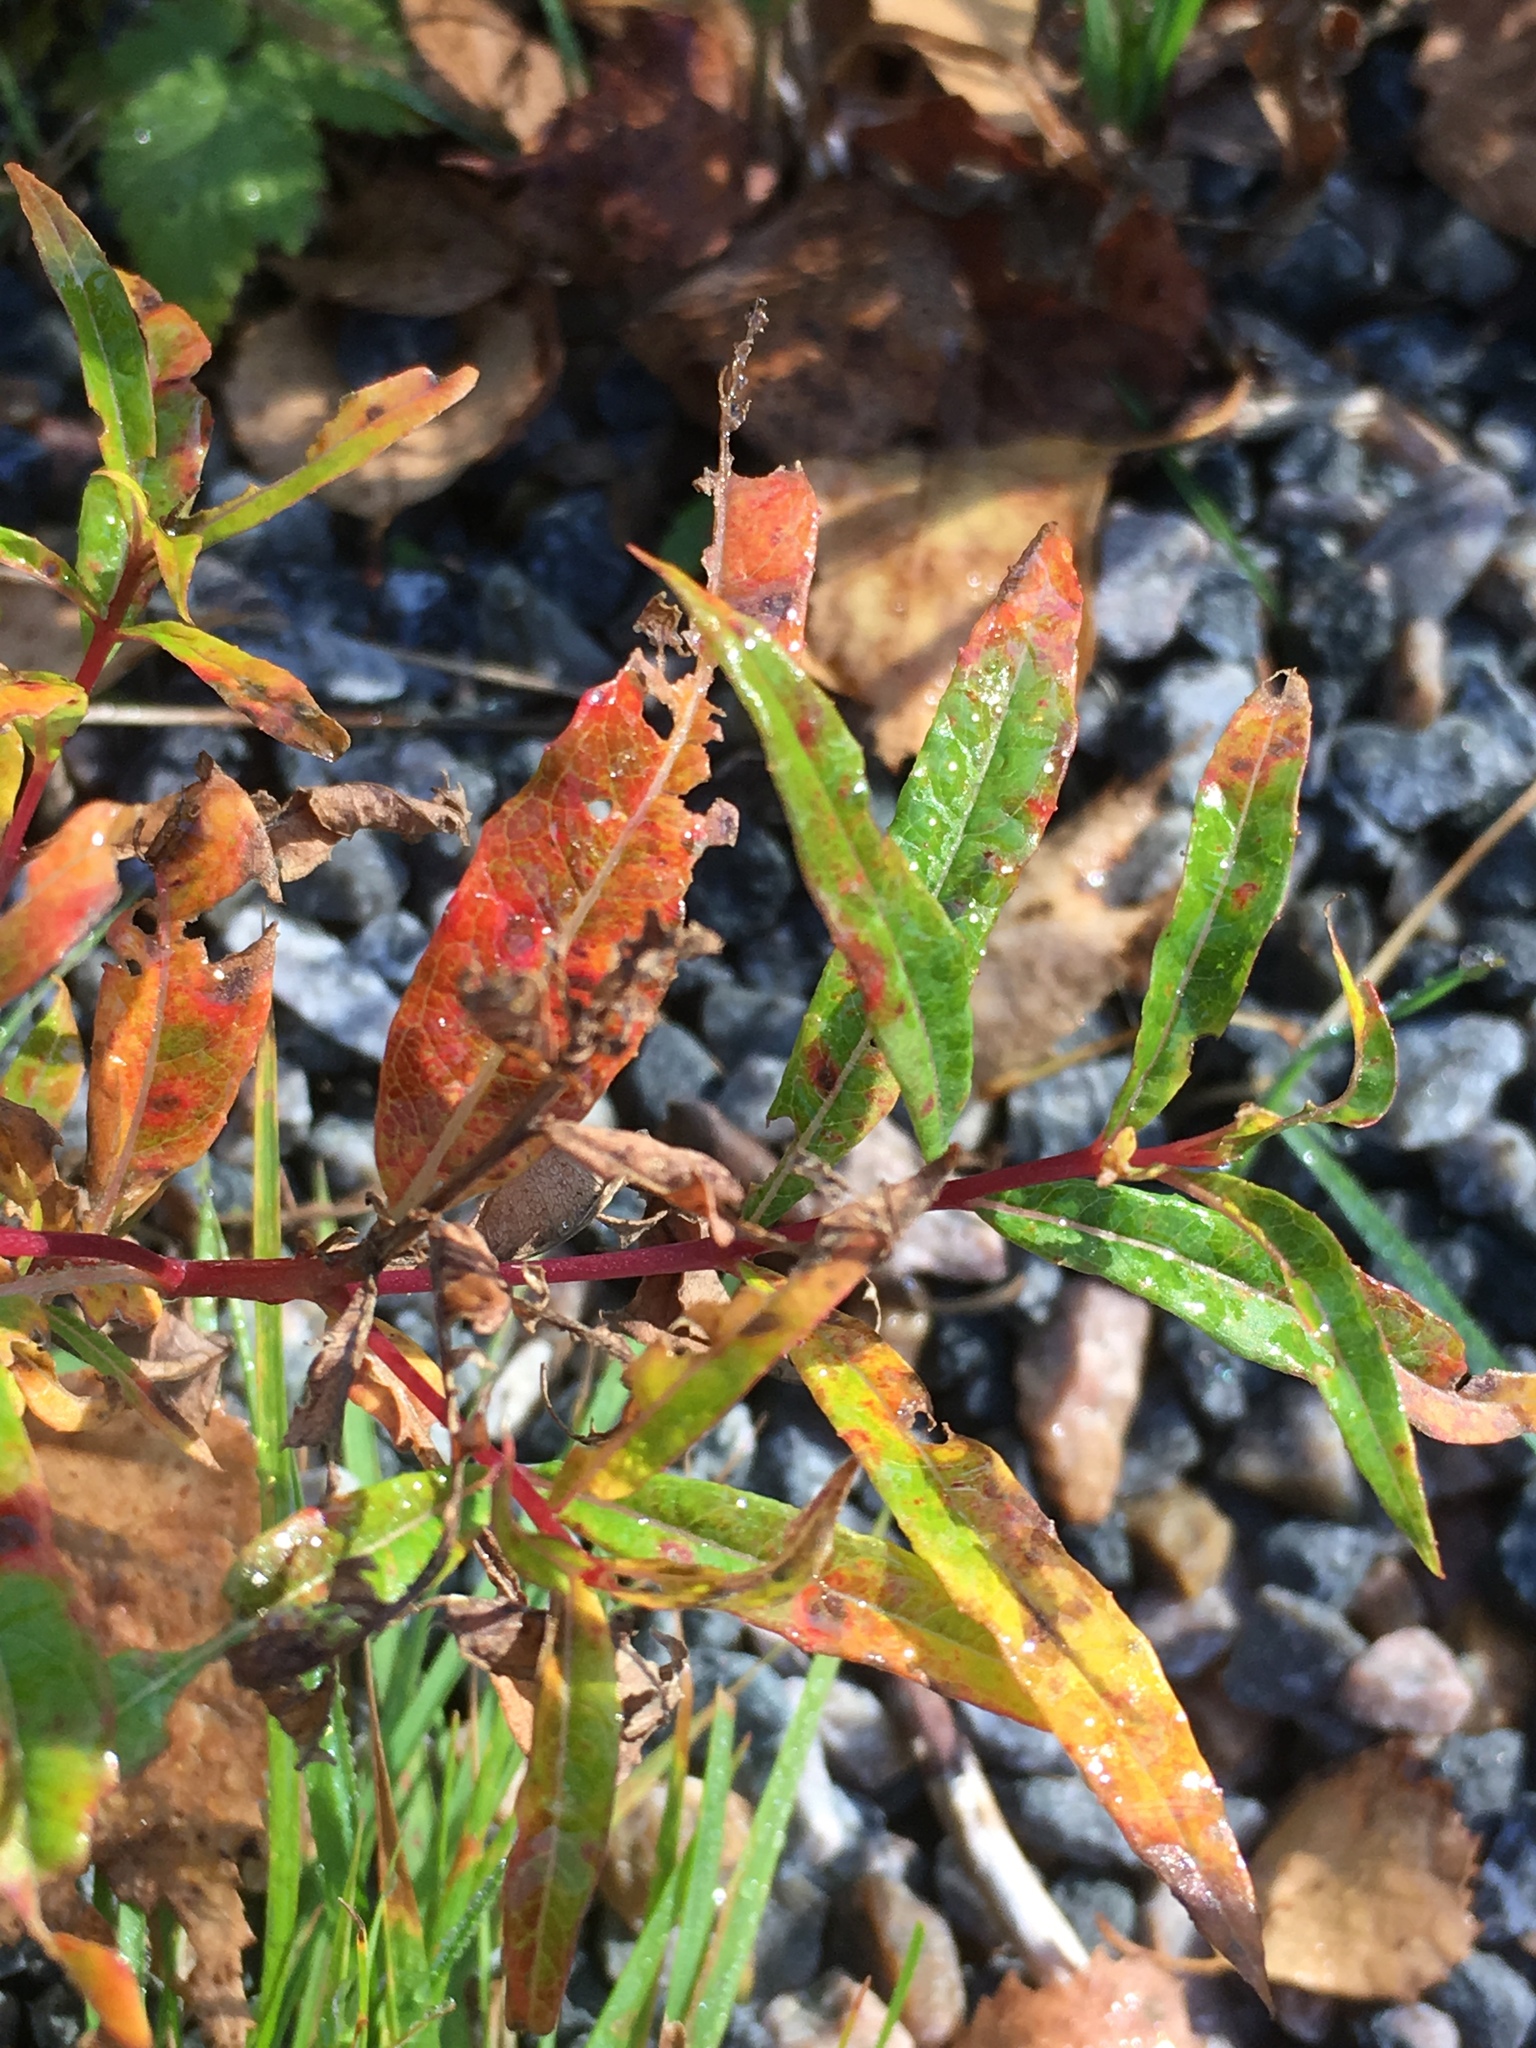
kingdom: Plantae
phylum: Tracheophyta
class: Magnoliopsida
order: Myrtales
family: Onagraceae
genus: Chamaenerion
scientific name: Chamaenerion angustifolium
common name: Fireweed
